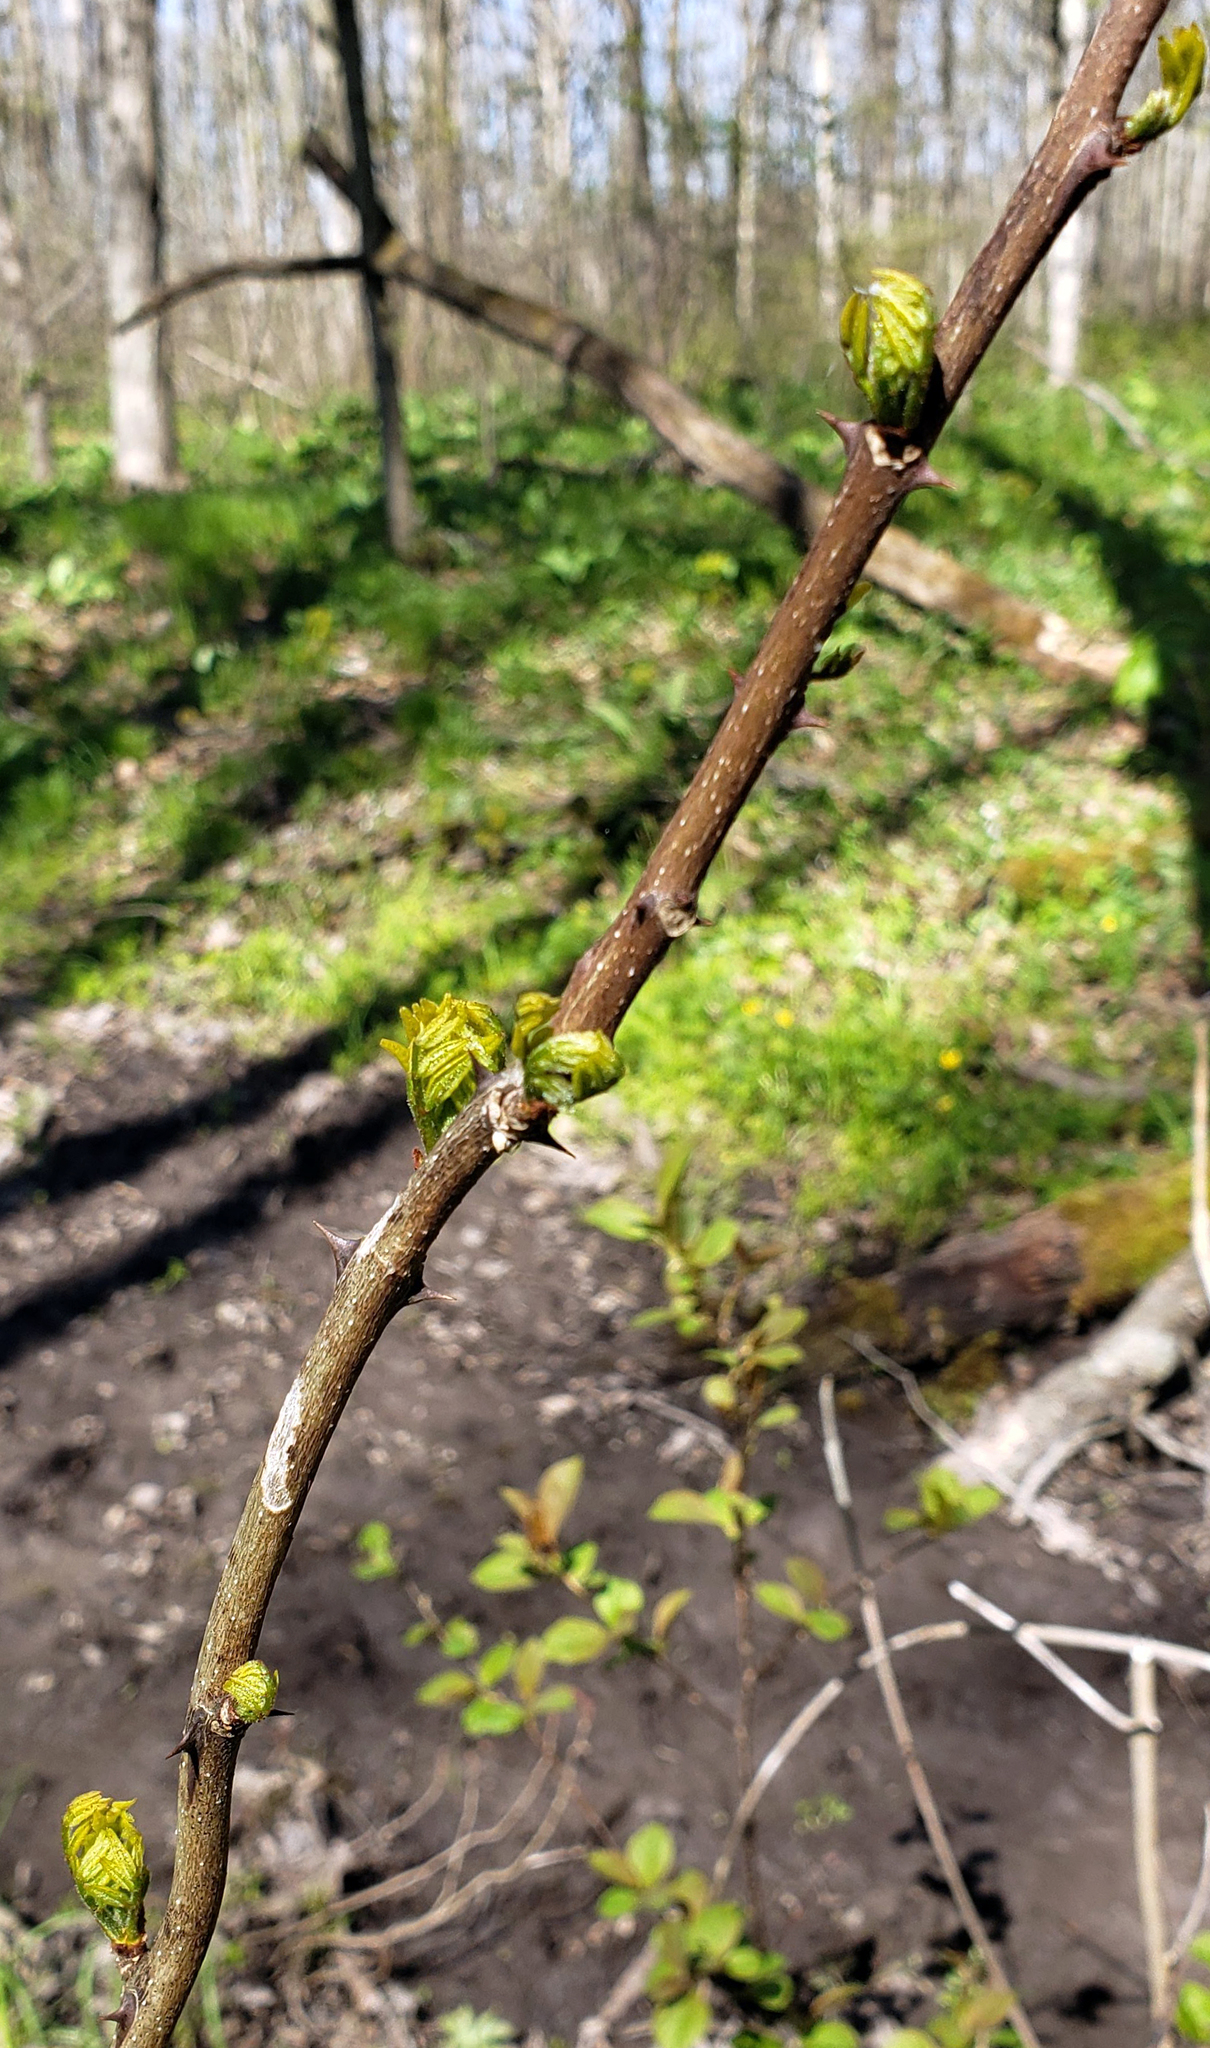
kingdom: Plantae
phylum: Tracheophyta
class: Magnoliopsida
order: Sapindales
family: Rutaceae
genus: Zanthoxylum
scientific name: Zanthoxylum americanum
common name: Northern prickly-ash
